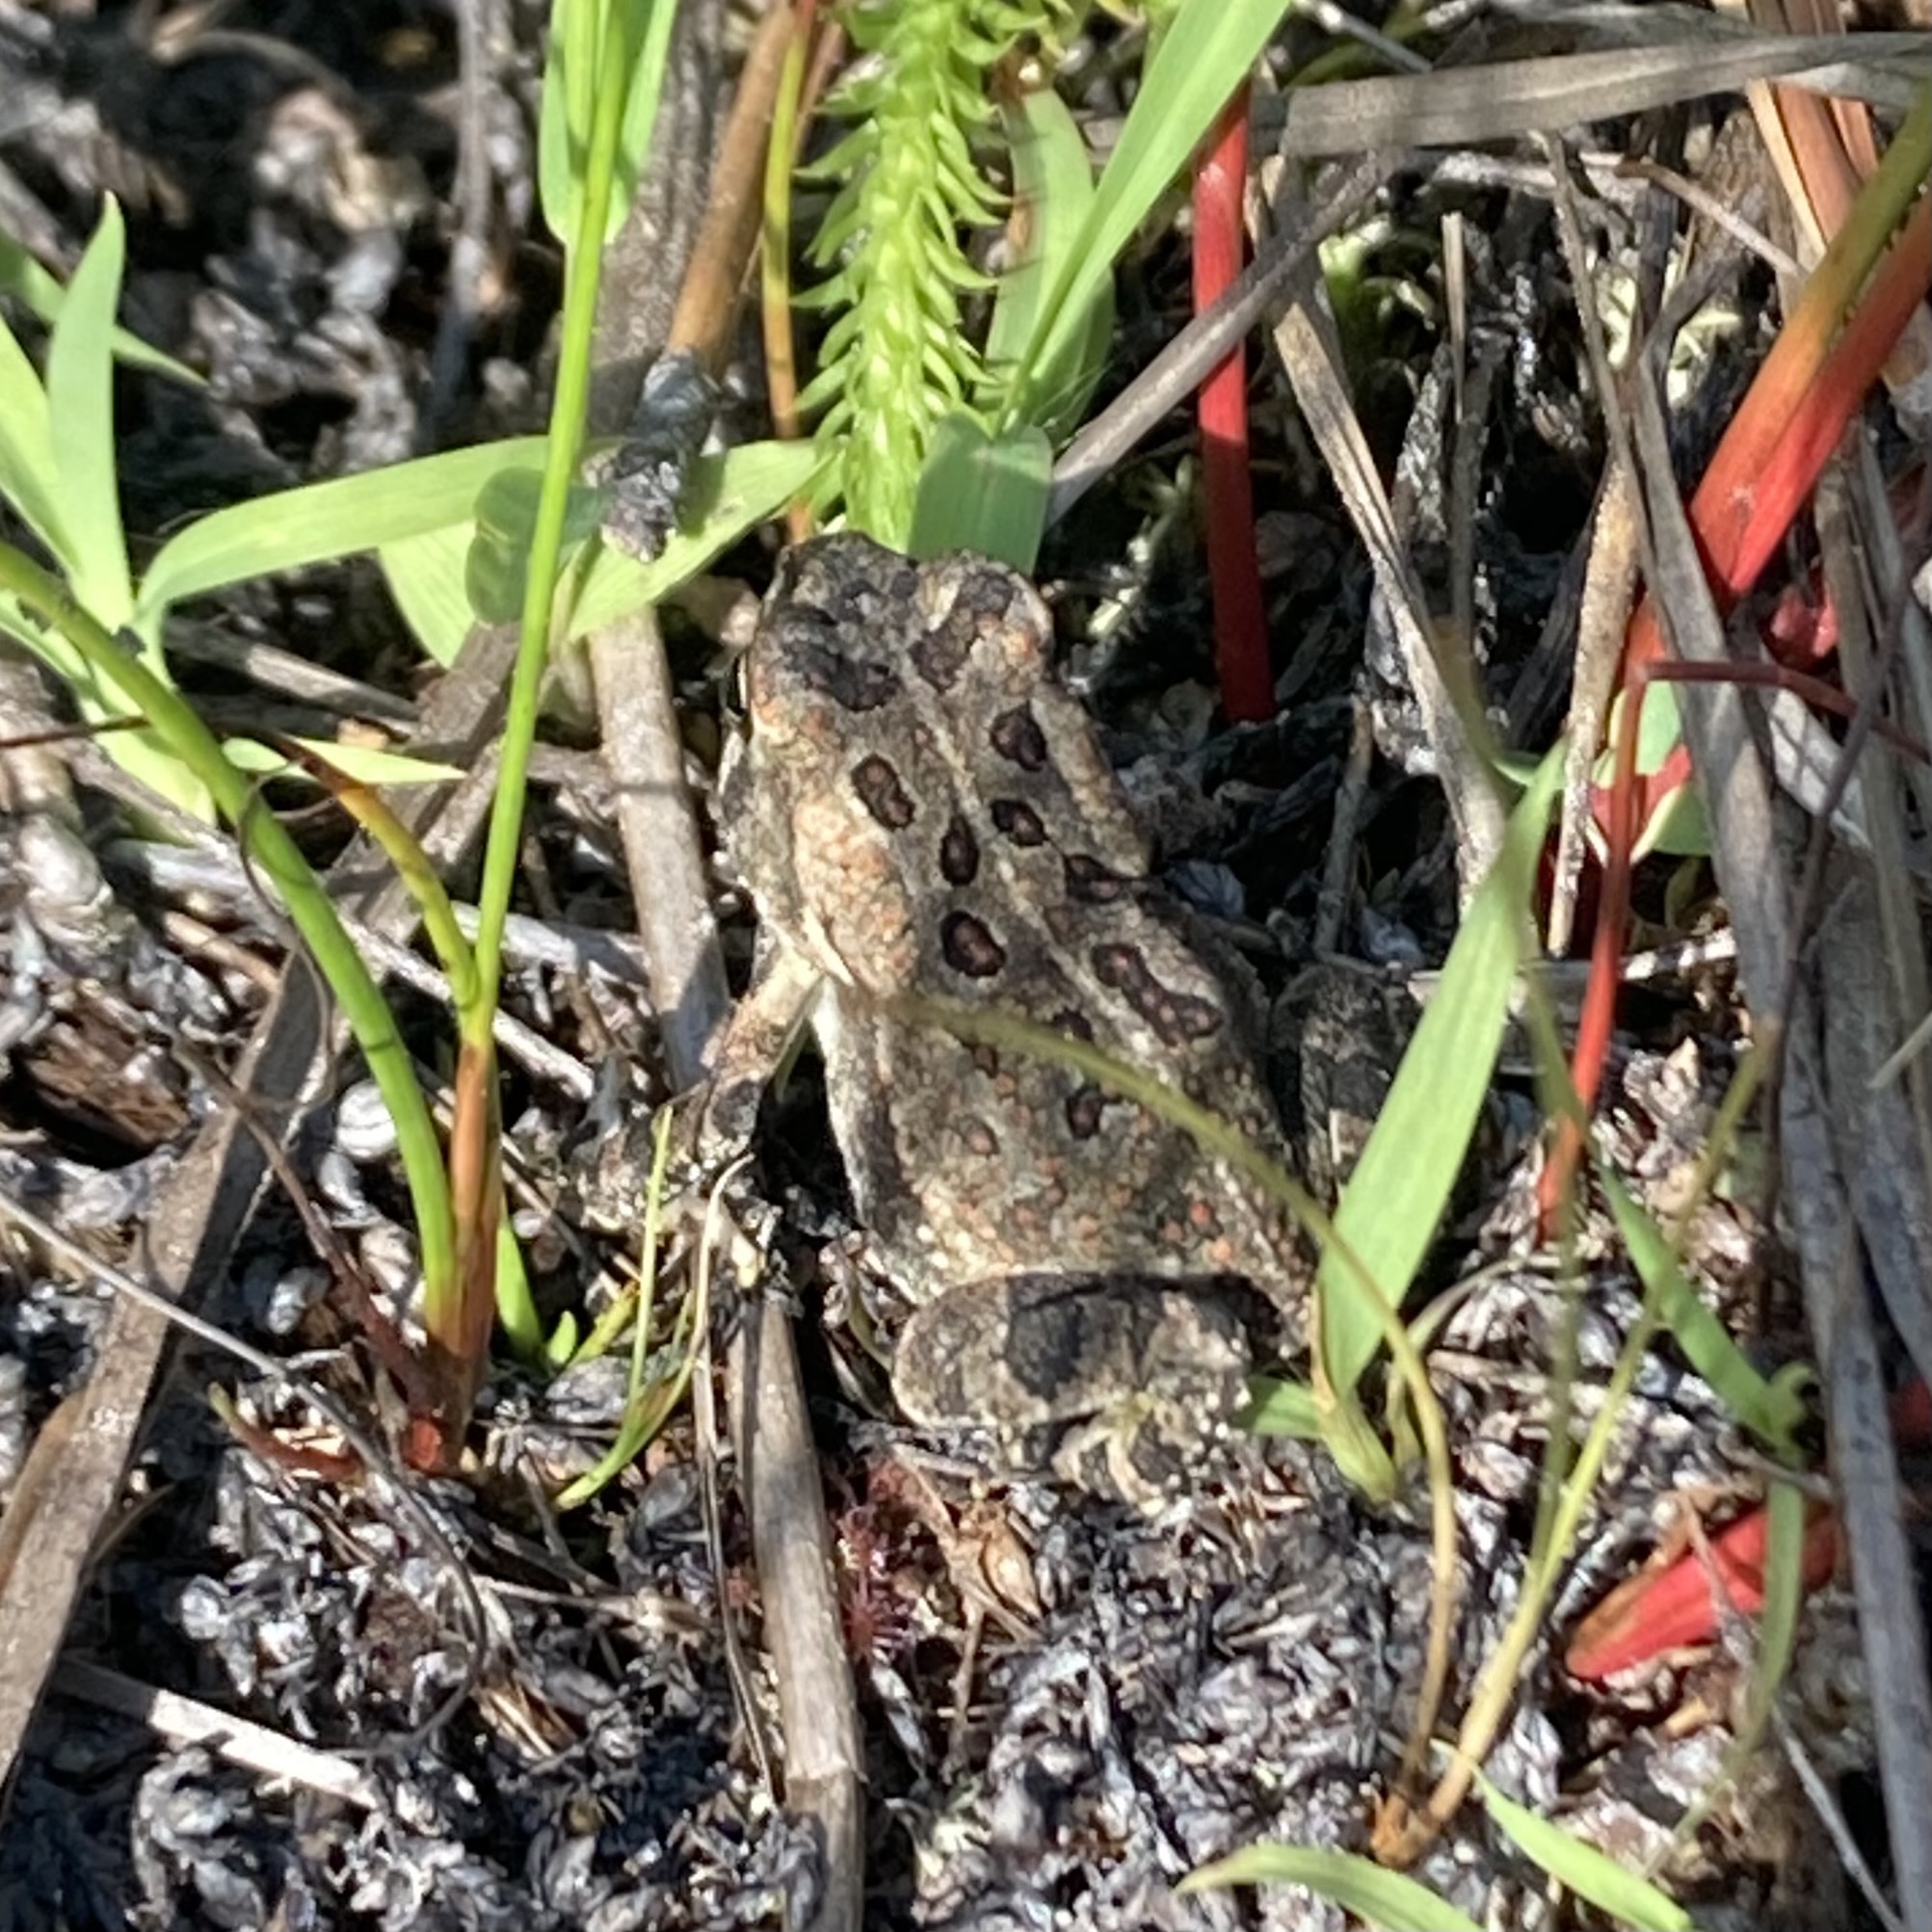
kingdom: Animalia
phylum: Chordata
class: Amphibia
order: Anura
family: Bufonidae
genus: Anaxyrus
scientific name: Anaxyrus fowleri
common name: Fowler's toad
